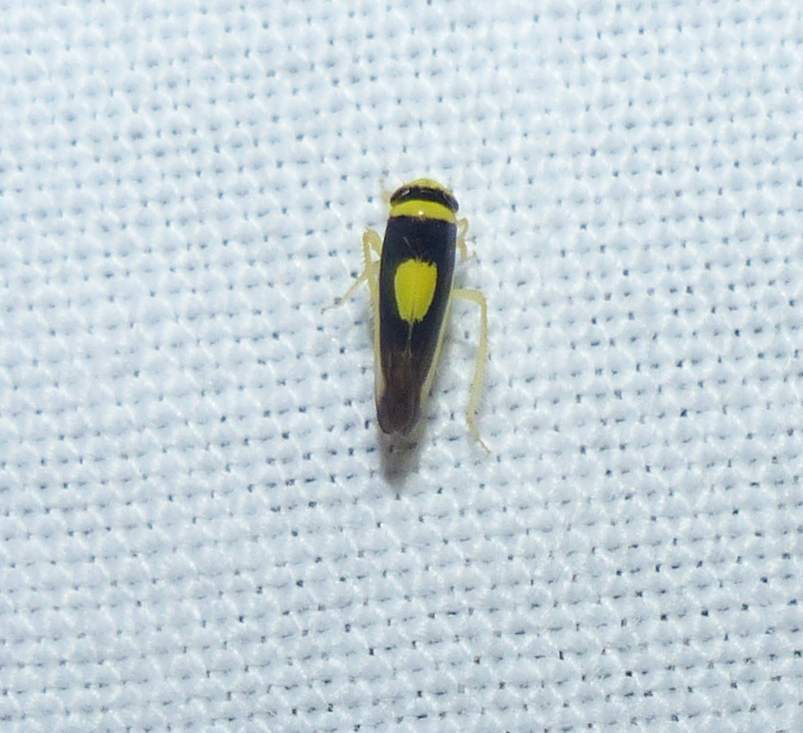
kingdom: Animalia
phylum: Arthropoda
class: Insecta
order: Hemiptera
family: Cicadellidae
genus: Colladonus
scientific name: Colladonus clitellarius
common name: The saddleback leafhopper
